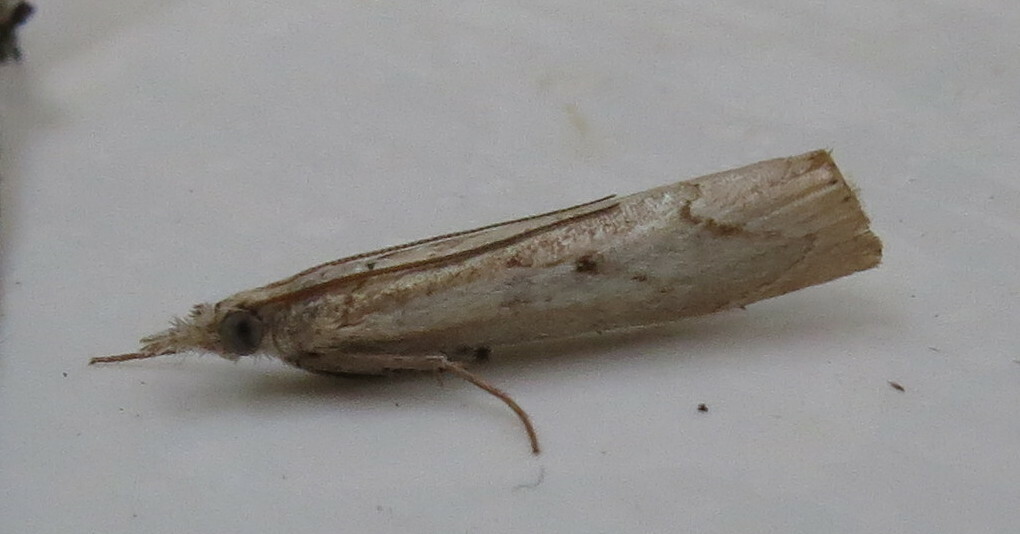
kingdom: Animalia
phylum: Arthropoda
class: Insecta
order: Lepidoptera
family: Crambidae
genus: Agriphila
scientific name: Agriphila geniculea
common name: Elbow-stripe grass-veneer
